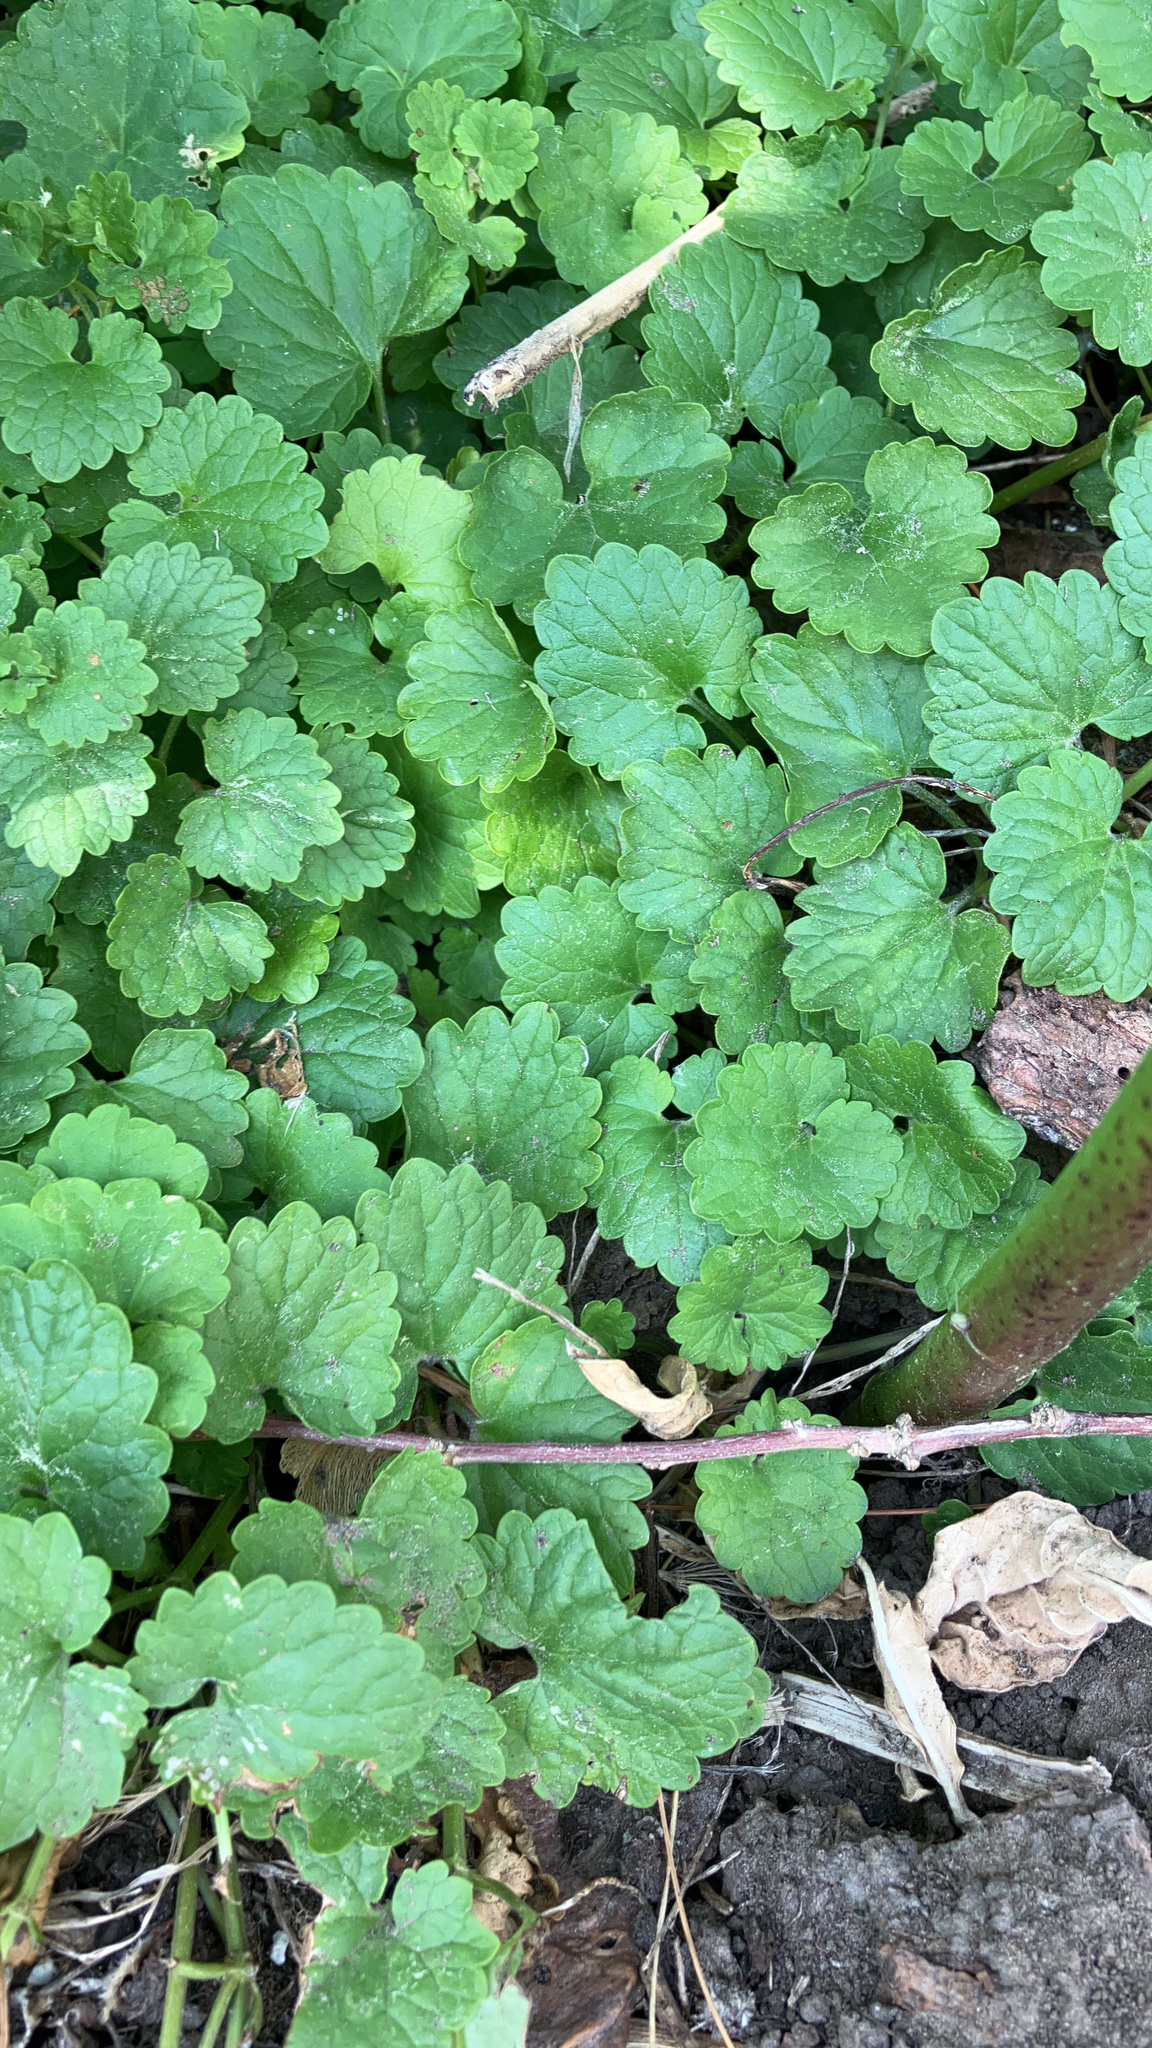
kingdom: Plantae
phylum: Tracheophyta
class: Magnoliopsida
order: Lamiales
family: Lamiaceae
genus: Glechoma
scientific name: Glechoma hederacea
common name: Ground ivy
